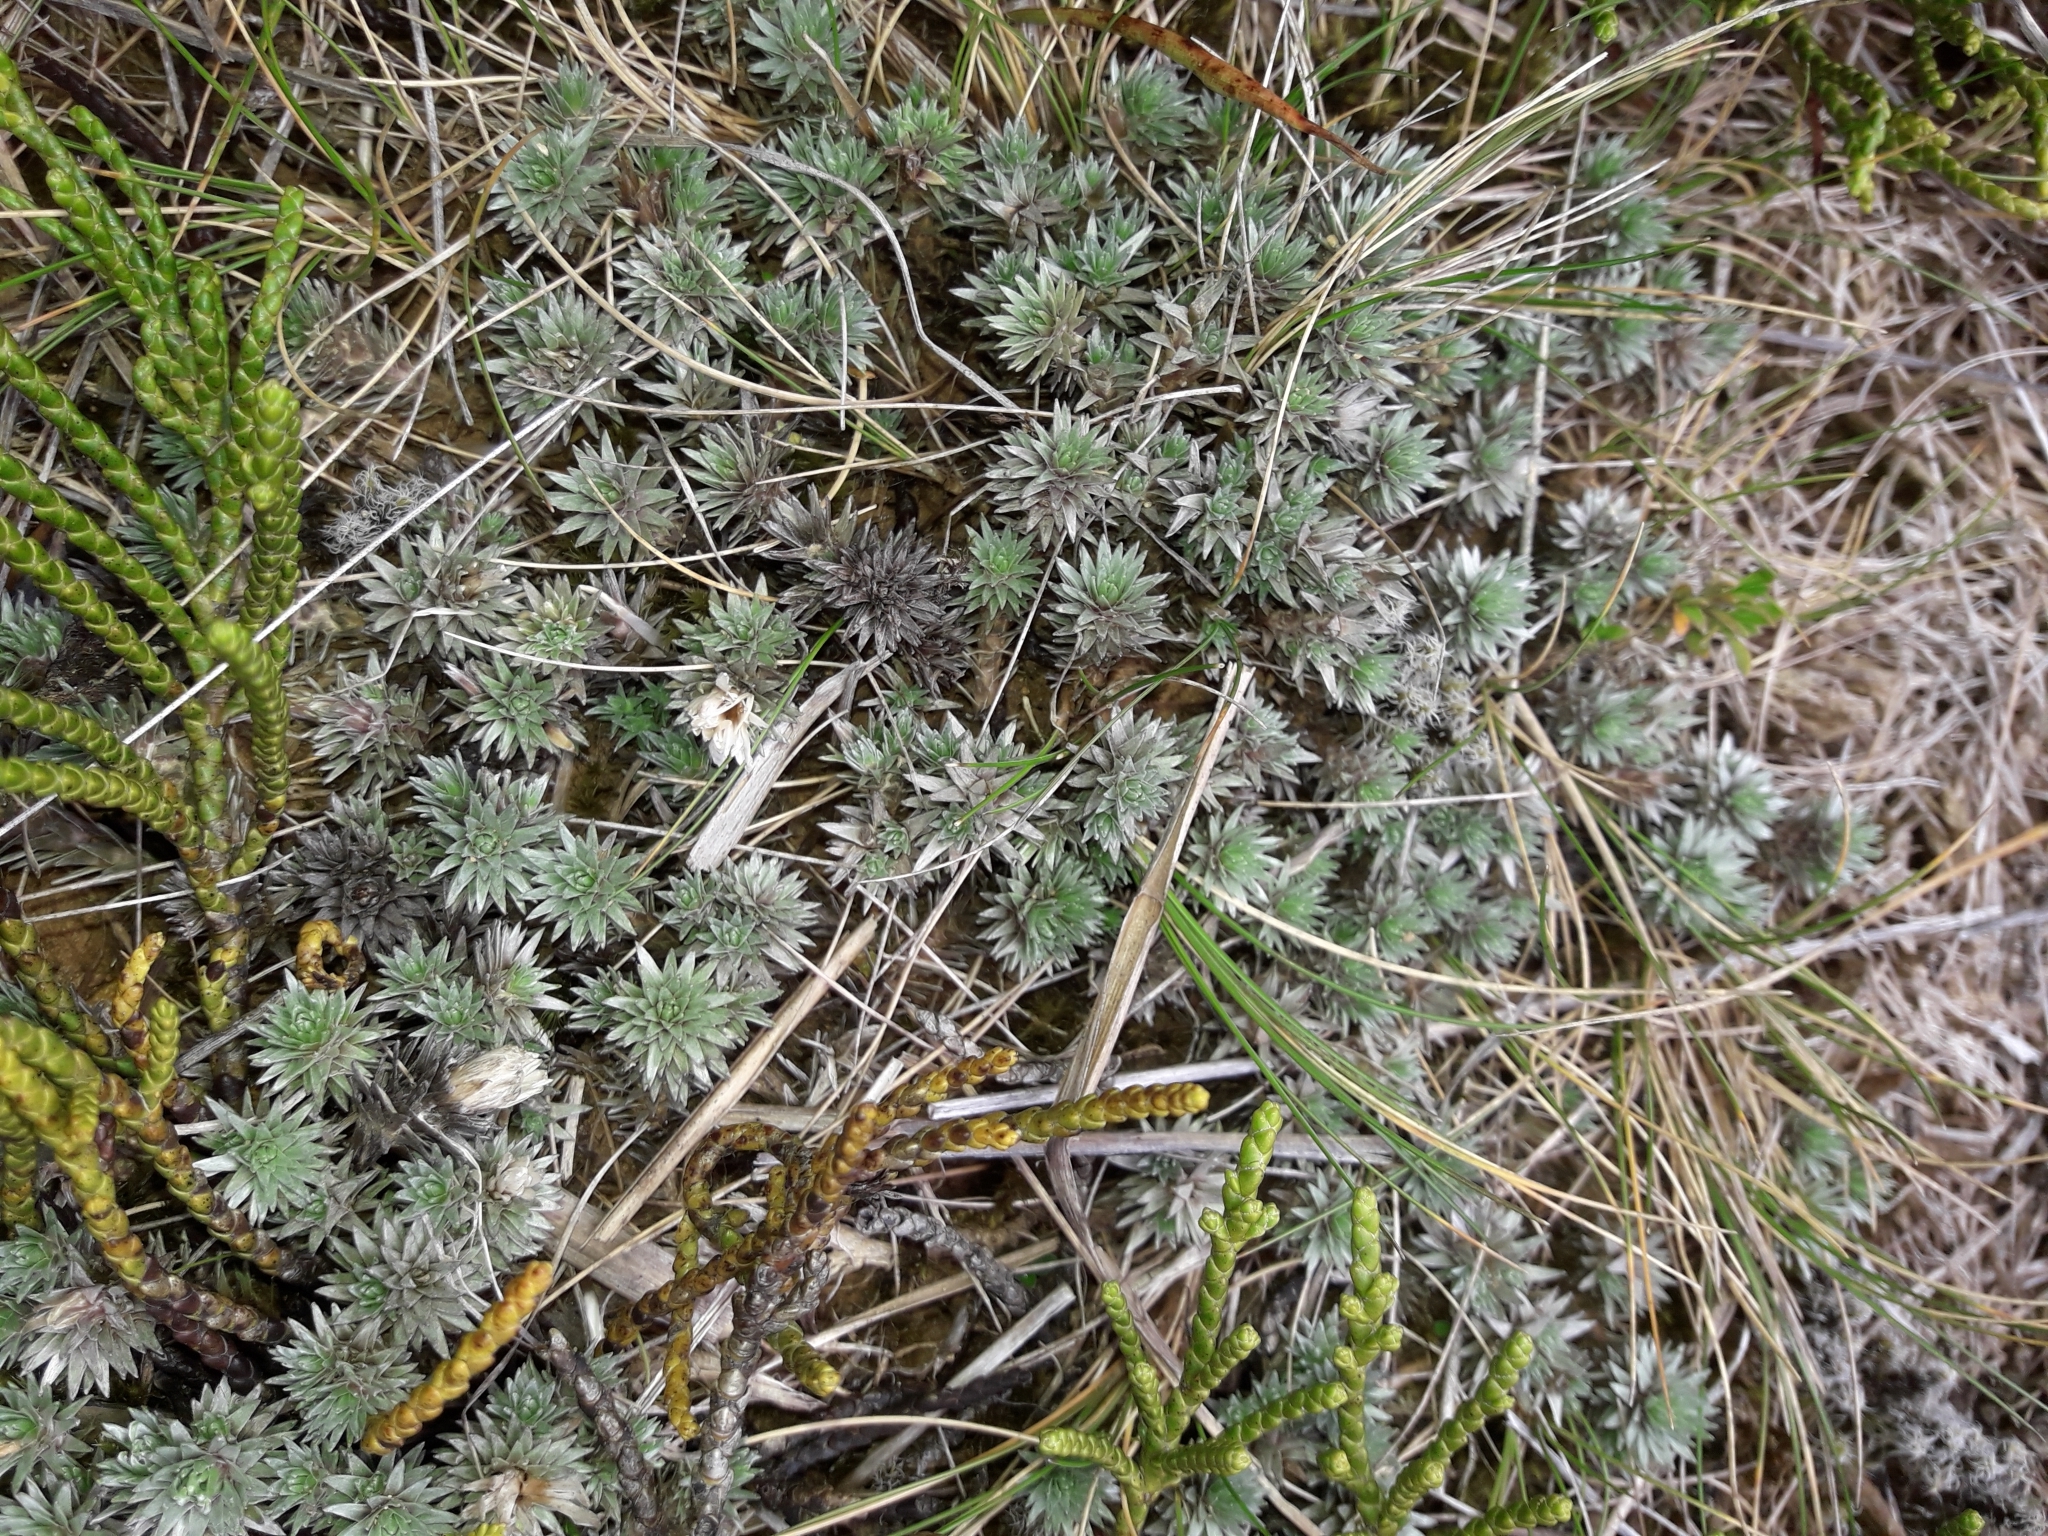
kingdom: Plantae
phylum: Tracheophyta
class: Magnoliopsida
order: Asterales
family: Asteraceae
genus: Raoulia
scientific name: Raoulia grandiflora
